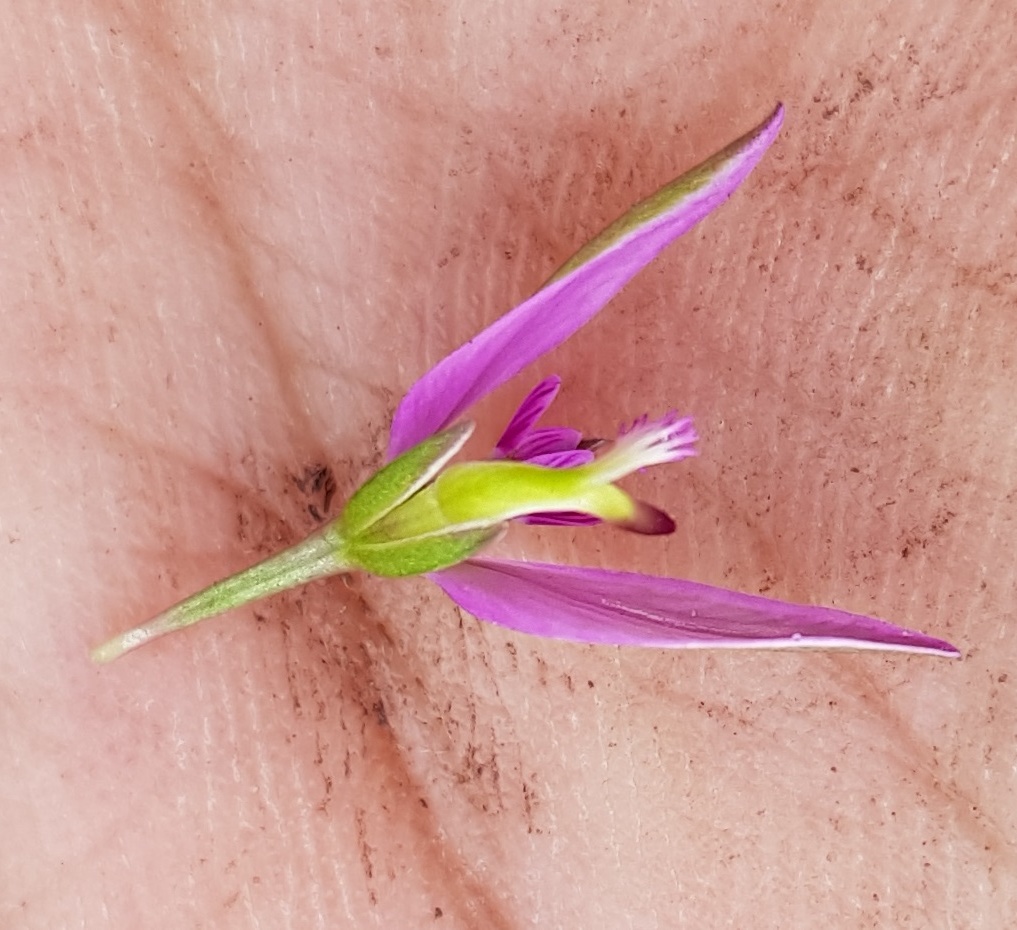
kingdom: Plantae
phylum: Tracheophyta
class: Magnoliopsida
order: Fabales
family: Polygalaceae
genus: Polygala
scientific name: Polygala refracta
